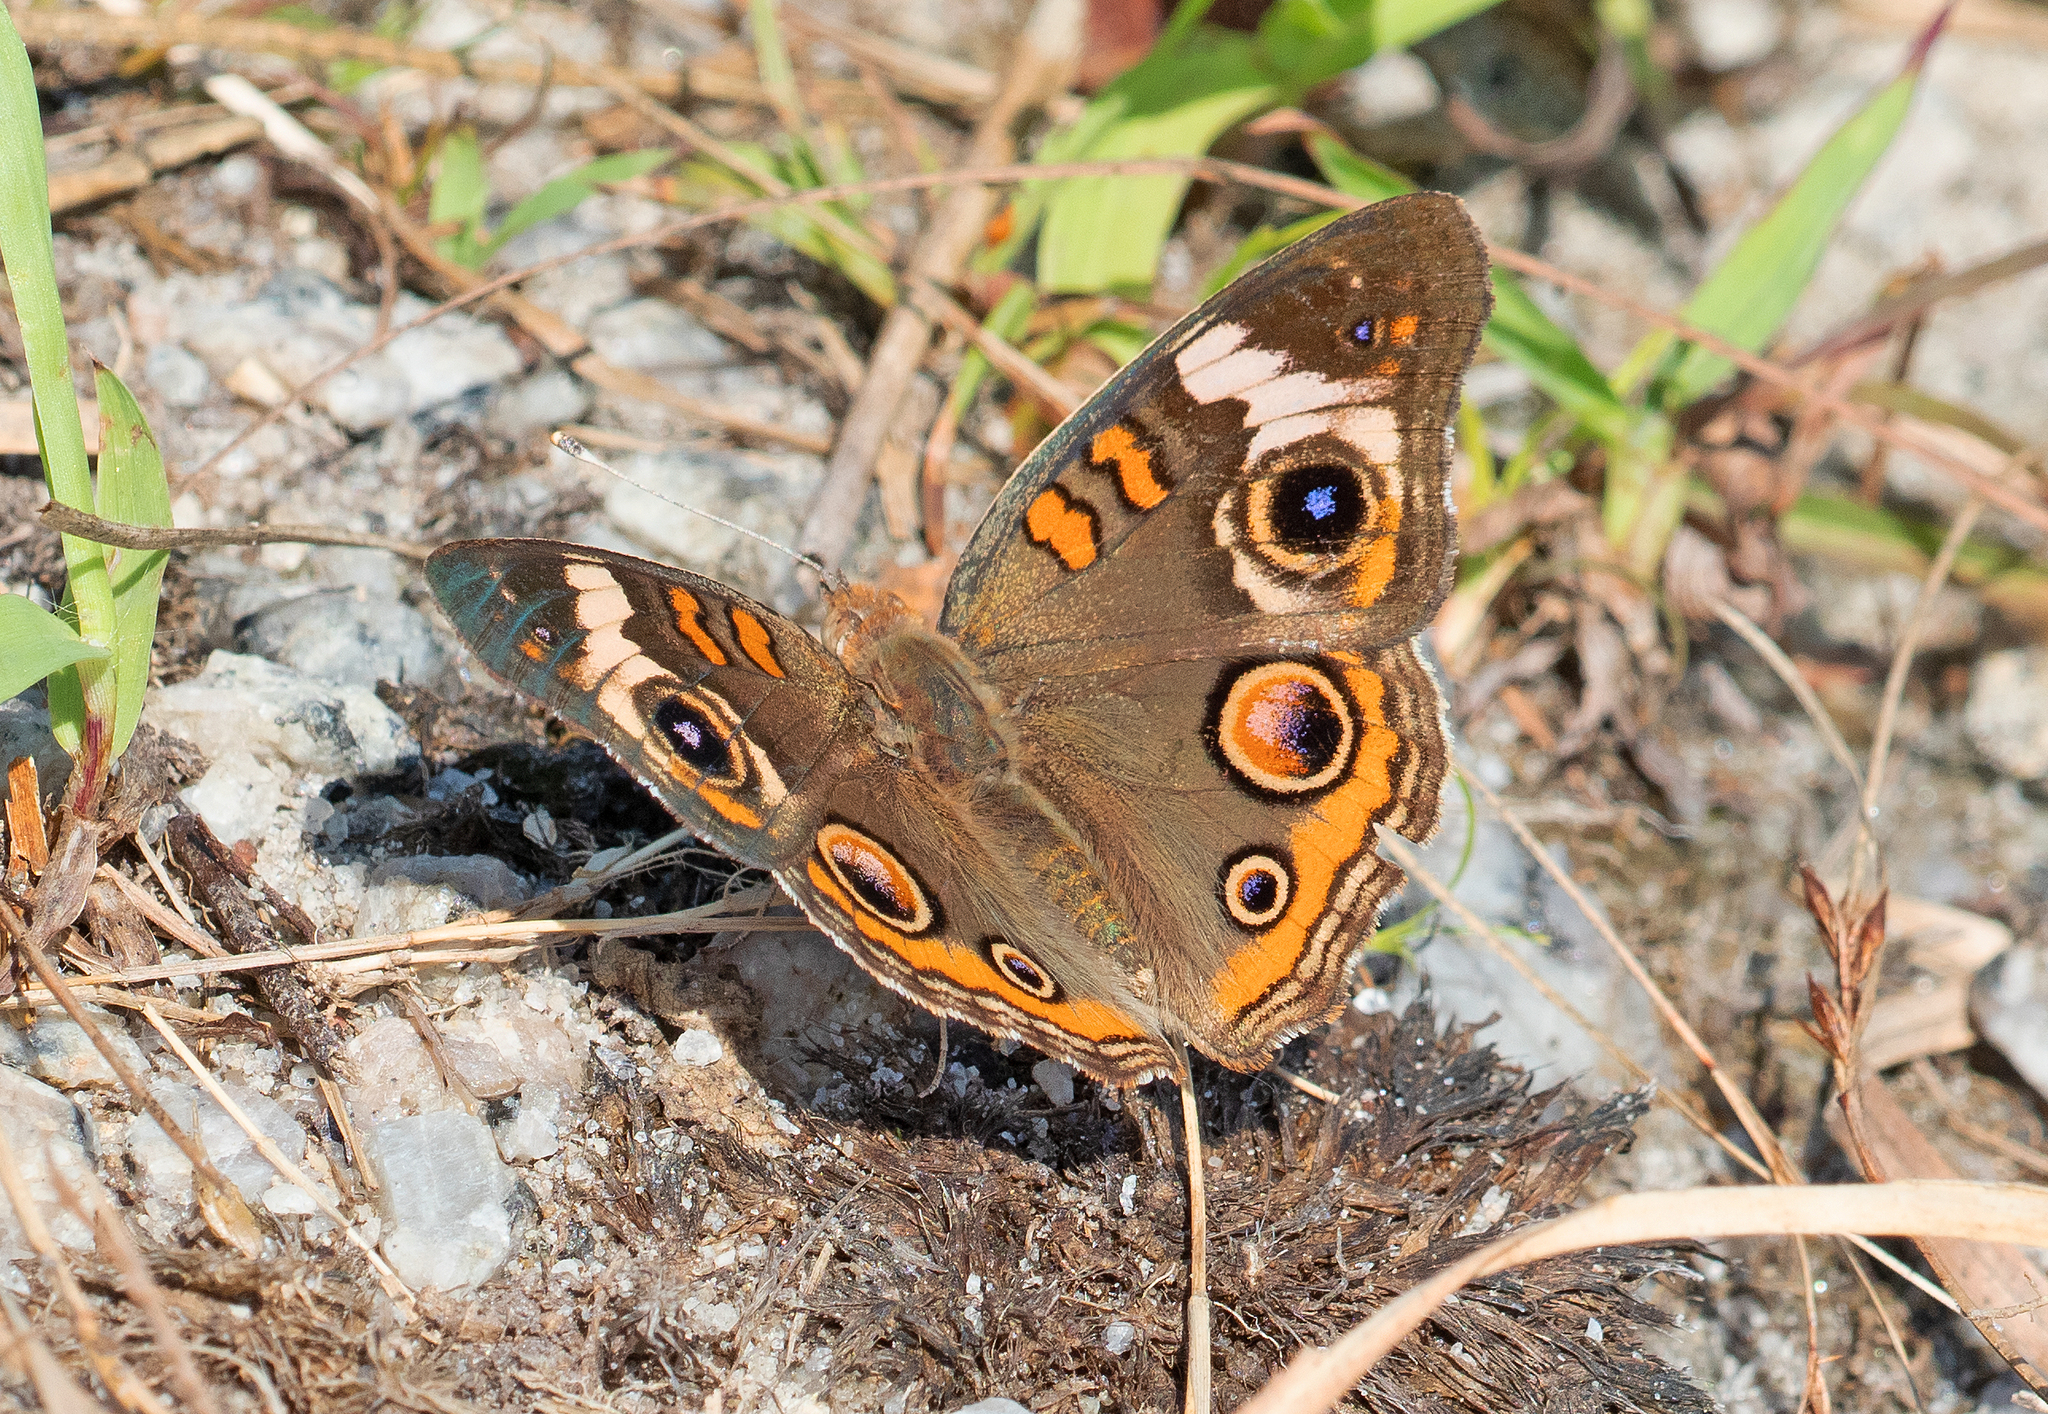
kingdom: Animalia
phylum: Arthropoda
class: Insecta
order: Lepidoptera
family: Nymphalidae
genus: Junonia
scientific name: Junonia coenia
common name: Common buckeye
